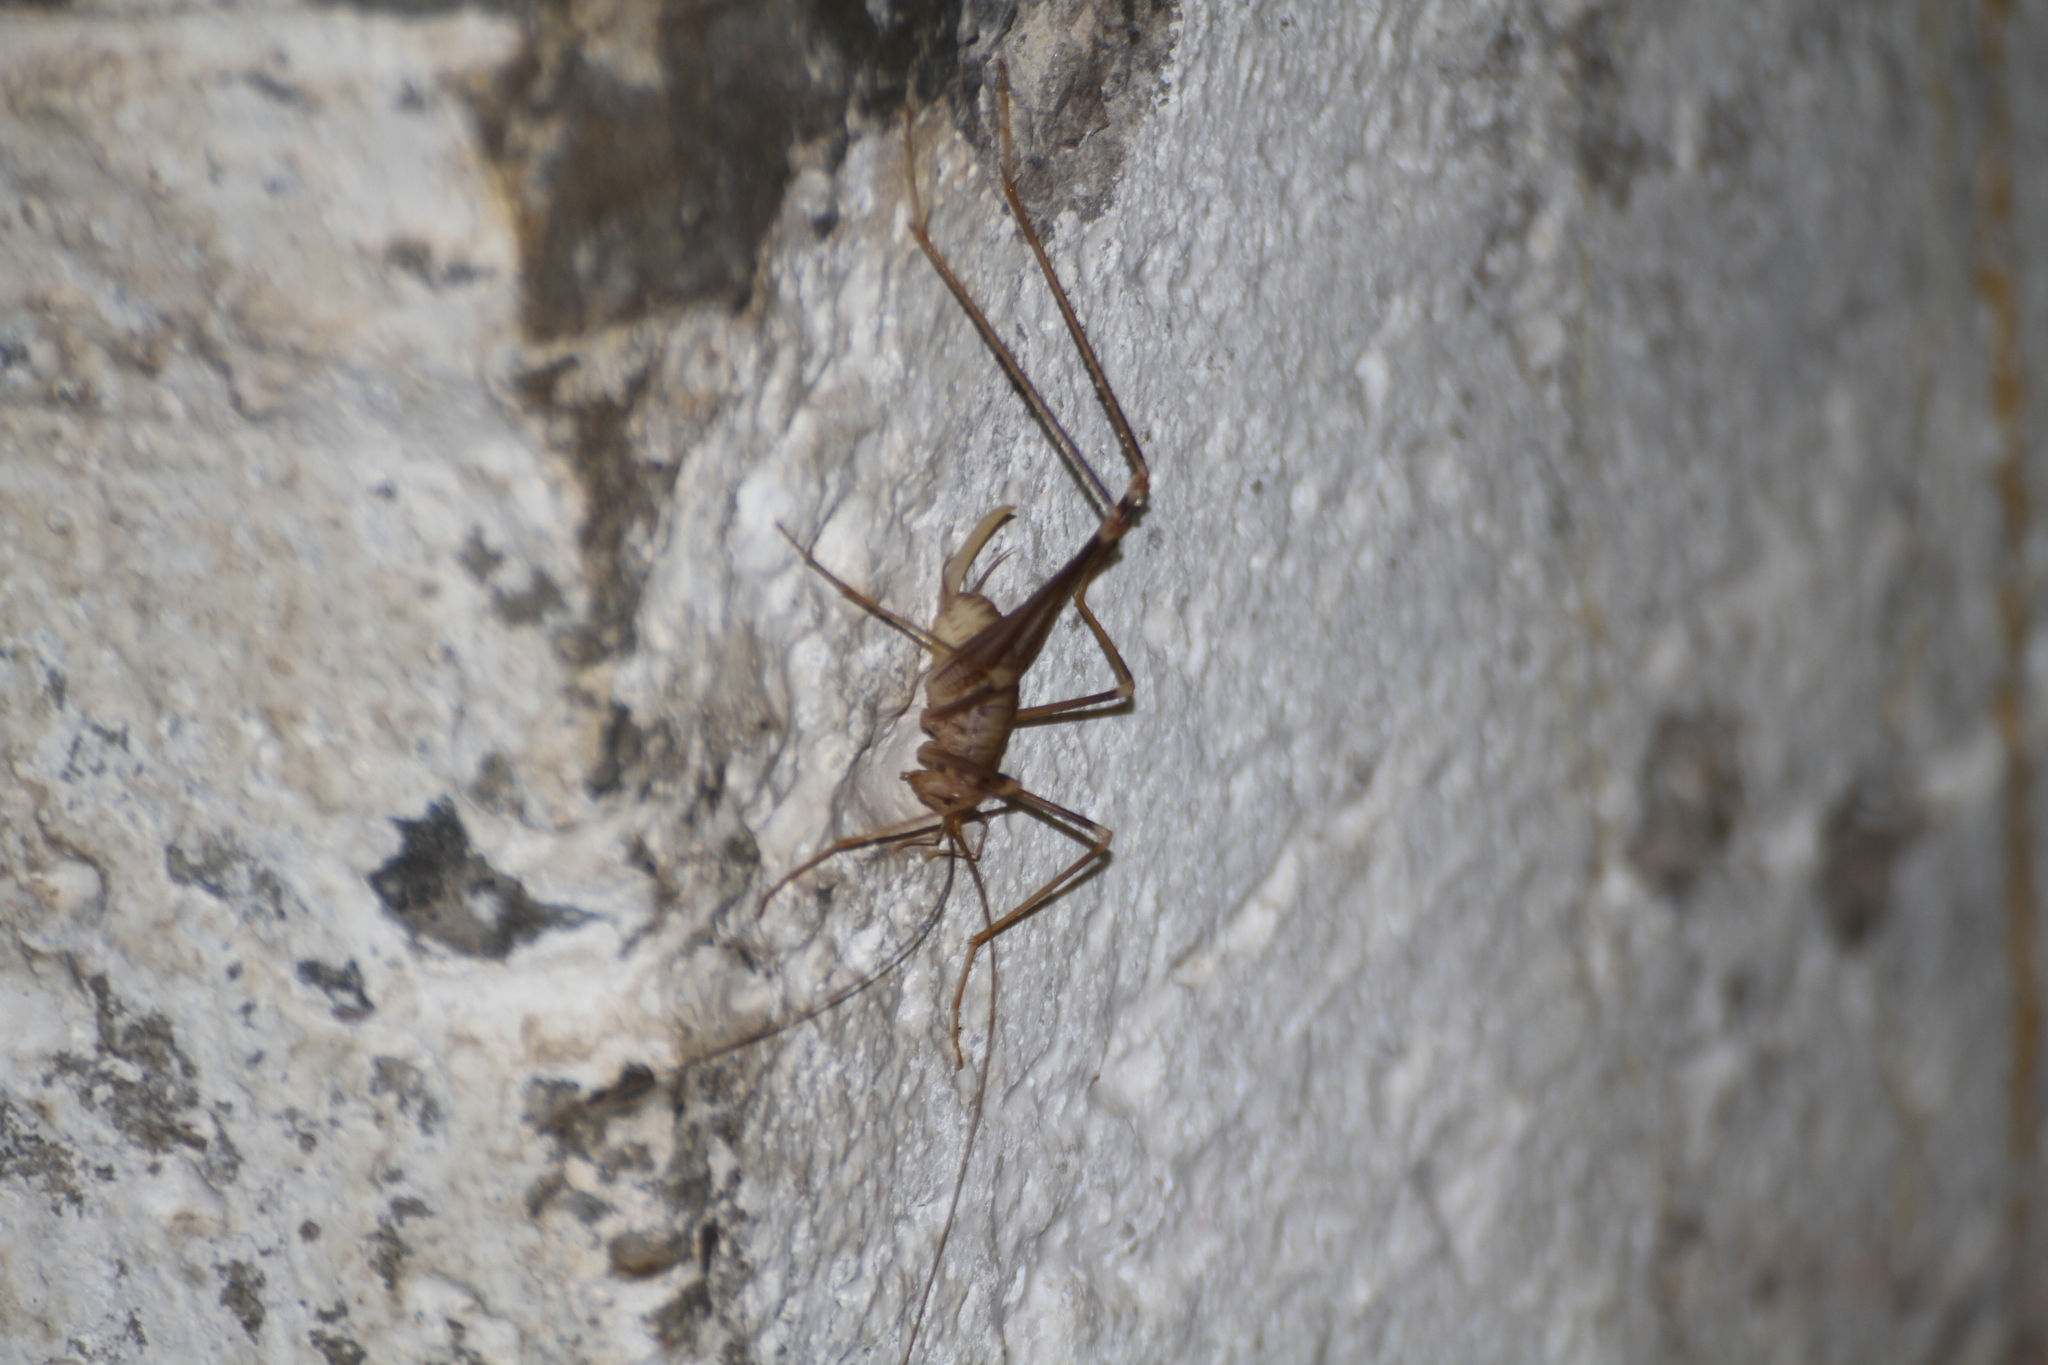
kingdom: Animalia
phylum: Arthropoda
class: Insecta
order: Orthoptera
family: Rhaphidophoridae
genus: Dolichopoda
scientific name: Dolichopoda azami
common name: Azam's cave-cricket
